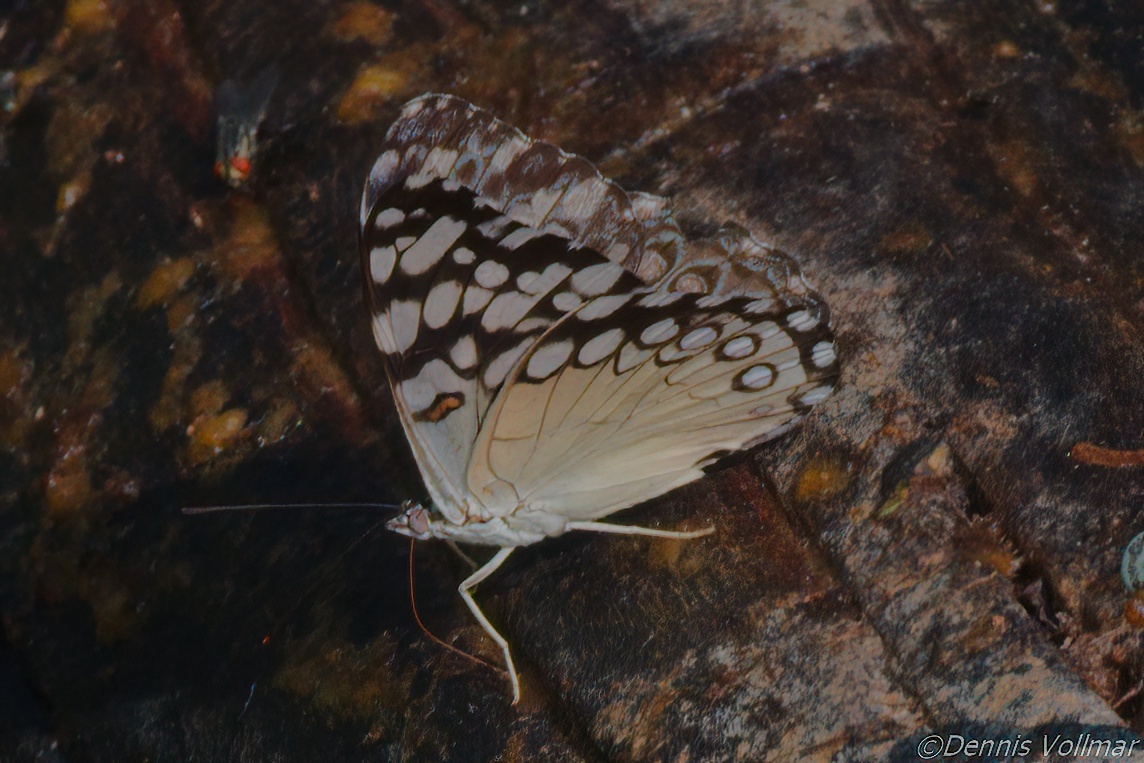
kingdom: Animalia
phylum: Arthropoda
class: Insecta
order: Lepidoptera
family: Nymphalidae
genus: Hamadryas
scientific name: Hamadryas guatemalena
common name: Guatemalan cracker
